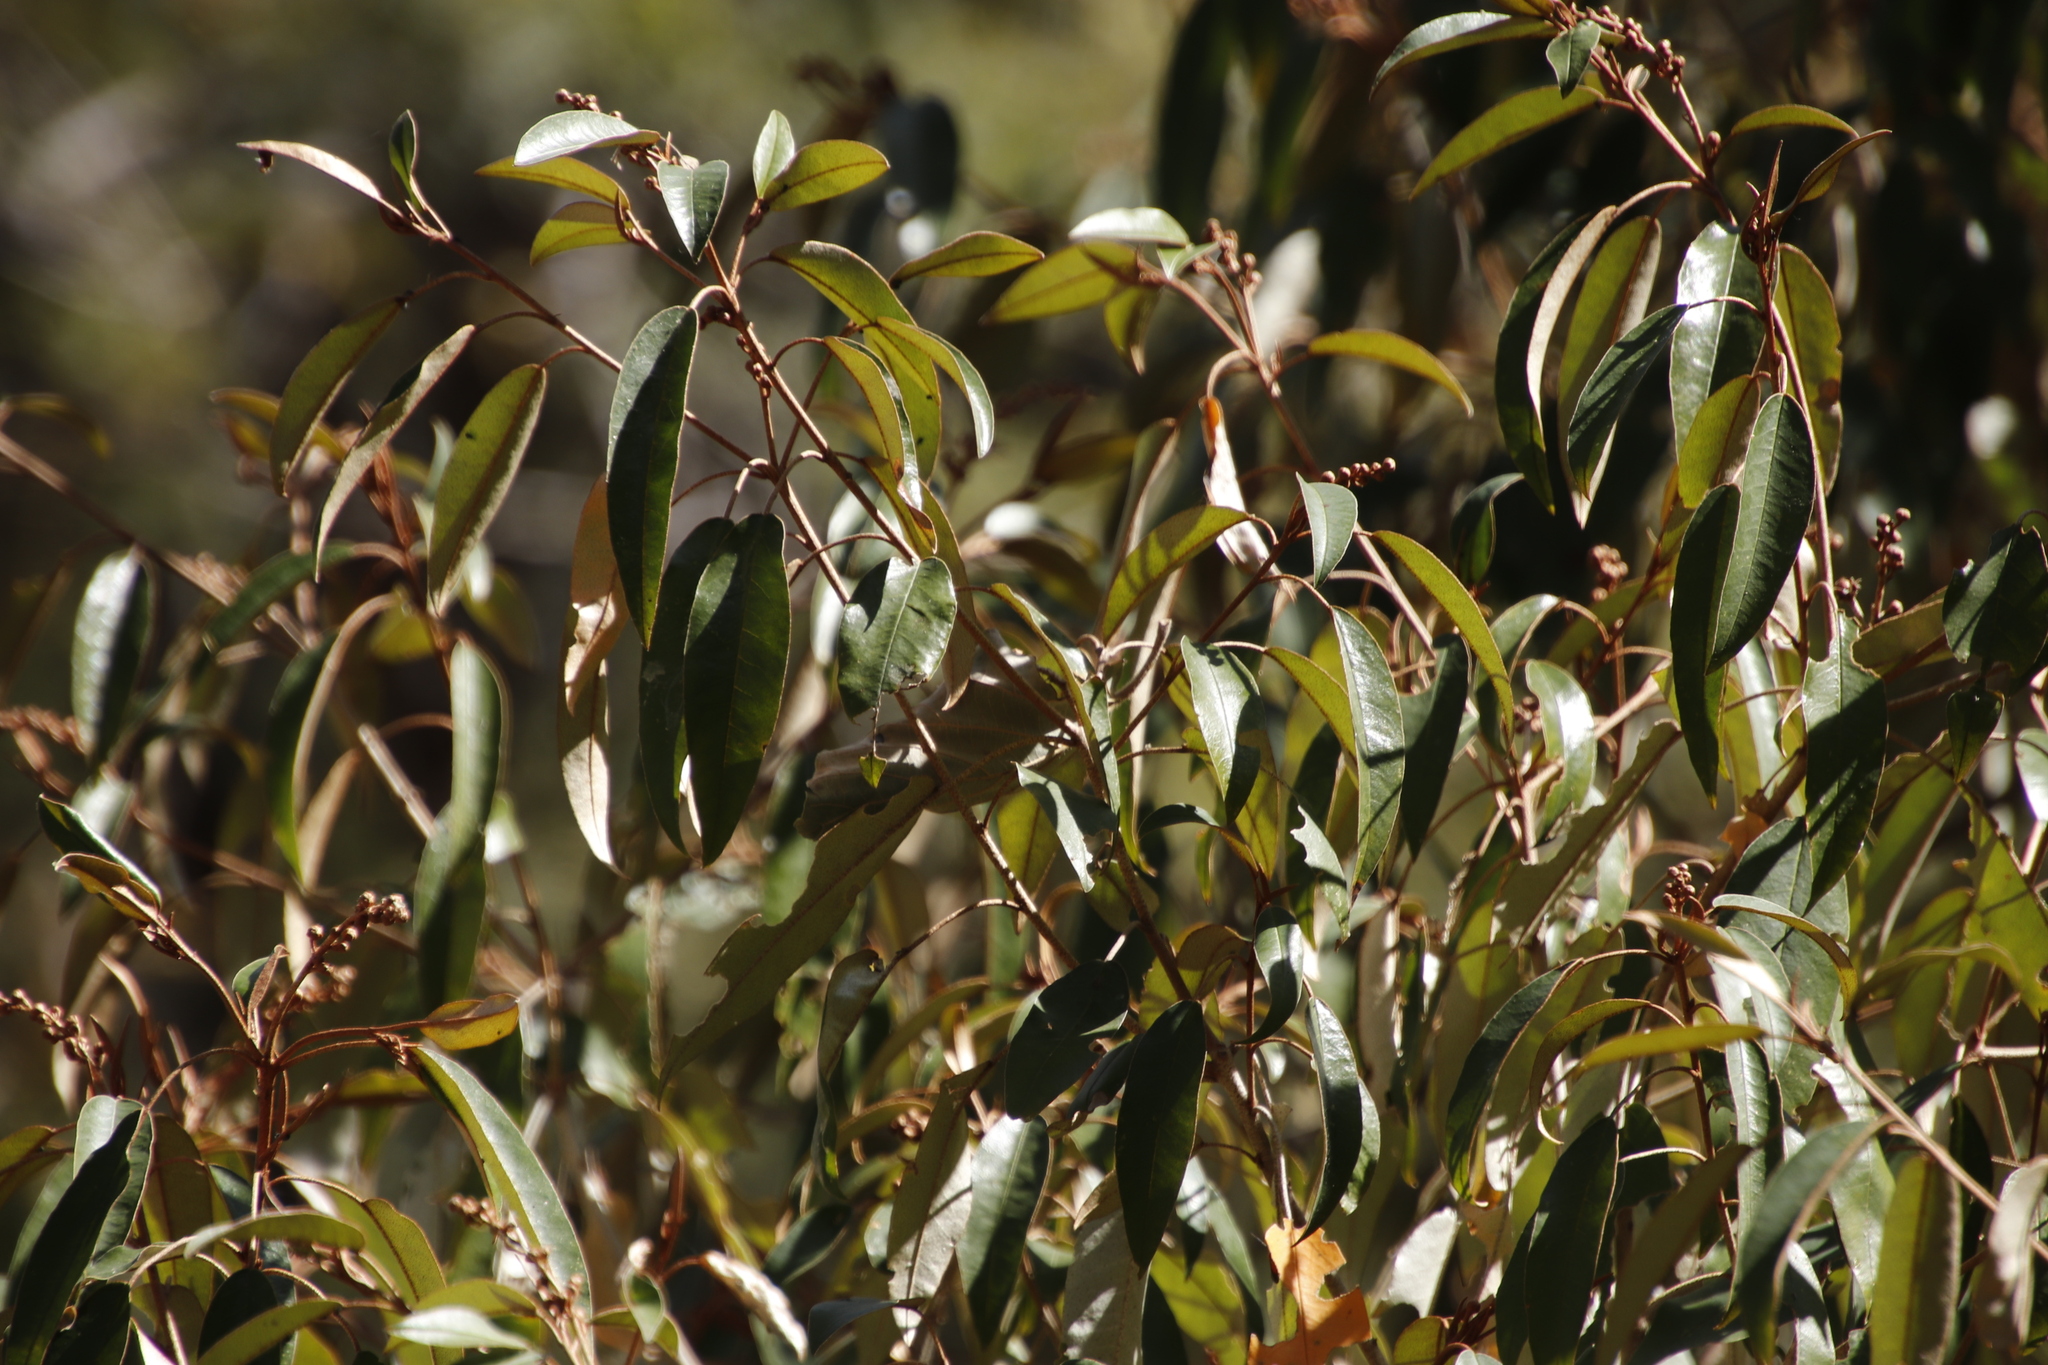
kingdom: Plantae
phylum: Tracheophyta
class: Magnoliopsida
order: Malpighiales
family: Euphorbiaceae
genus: Croton
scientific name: Croton gratissimus
